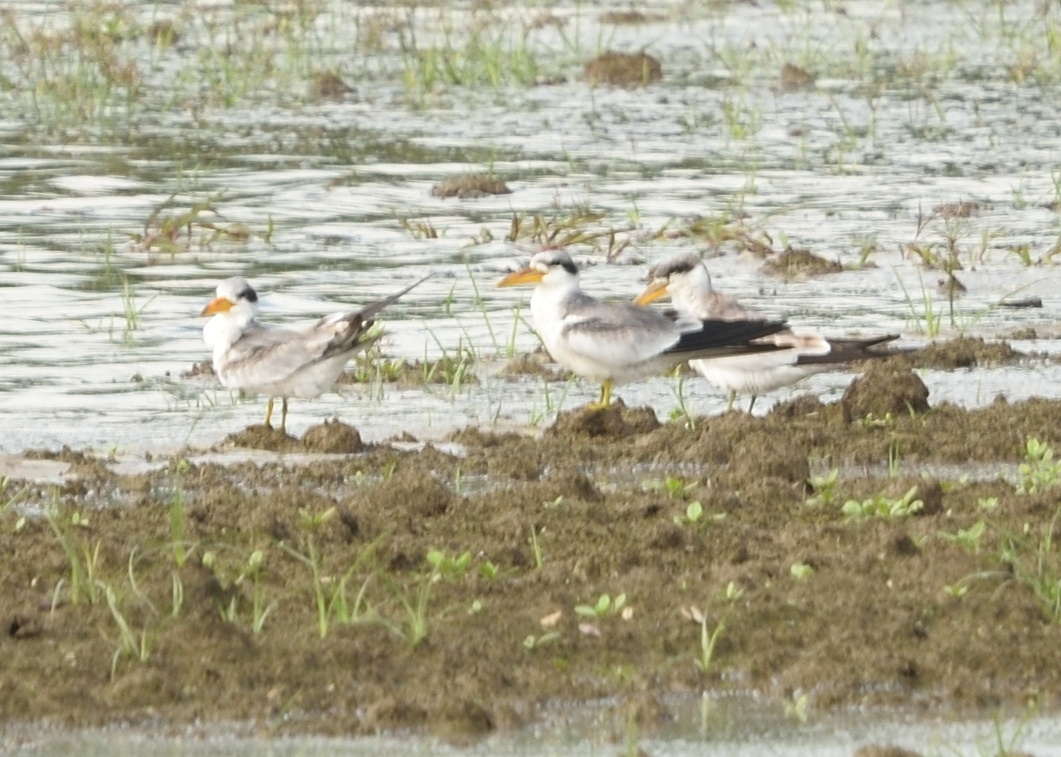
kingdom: Animalia
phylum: Chordata
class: Aves
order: Charadriiformes
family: Laridae
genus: Phaetusa
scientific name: Phaetusa simplex
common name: Large-billed tern
